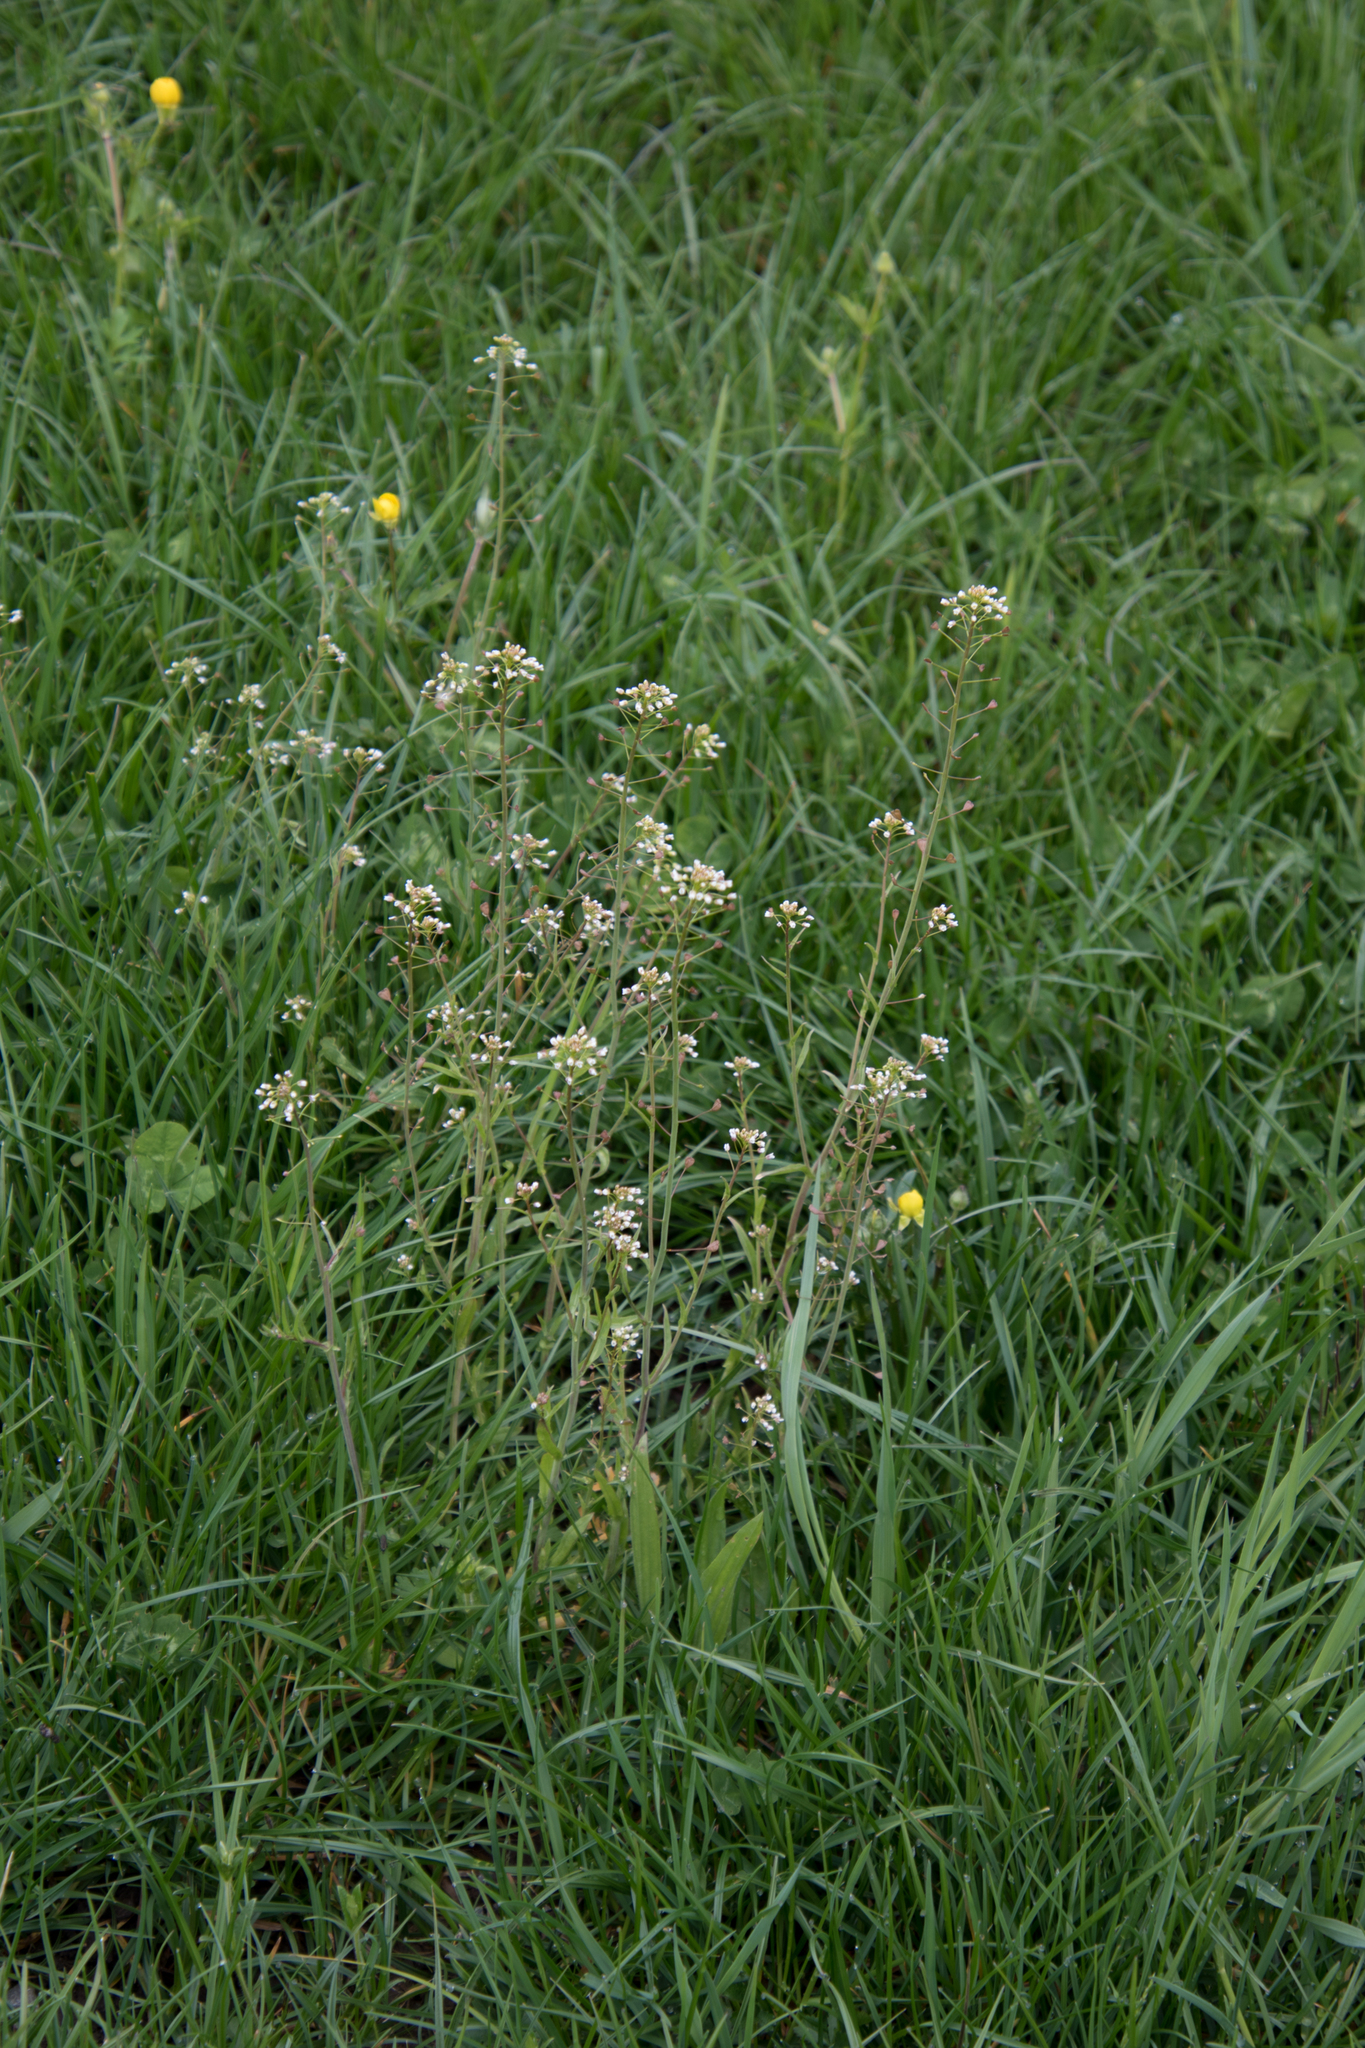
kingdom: Plantae
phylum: Tracheophyta
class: Magnoliopsida
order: Brassicales
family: Brassicaceae
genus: Capsella
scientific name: Capsella bursa-pastoris
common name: Shepherd's purse
